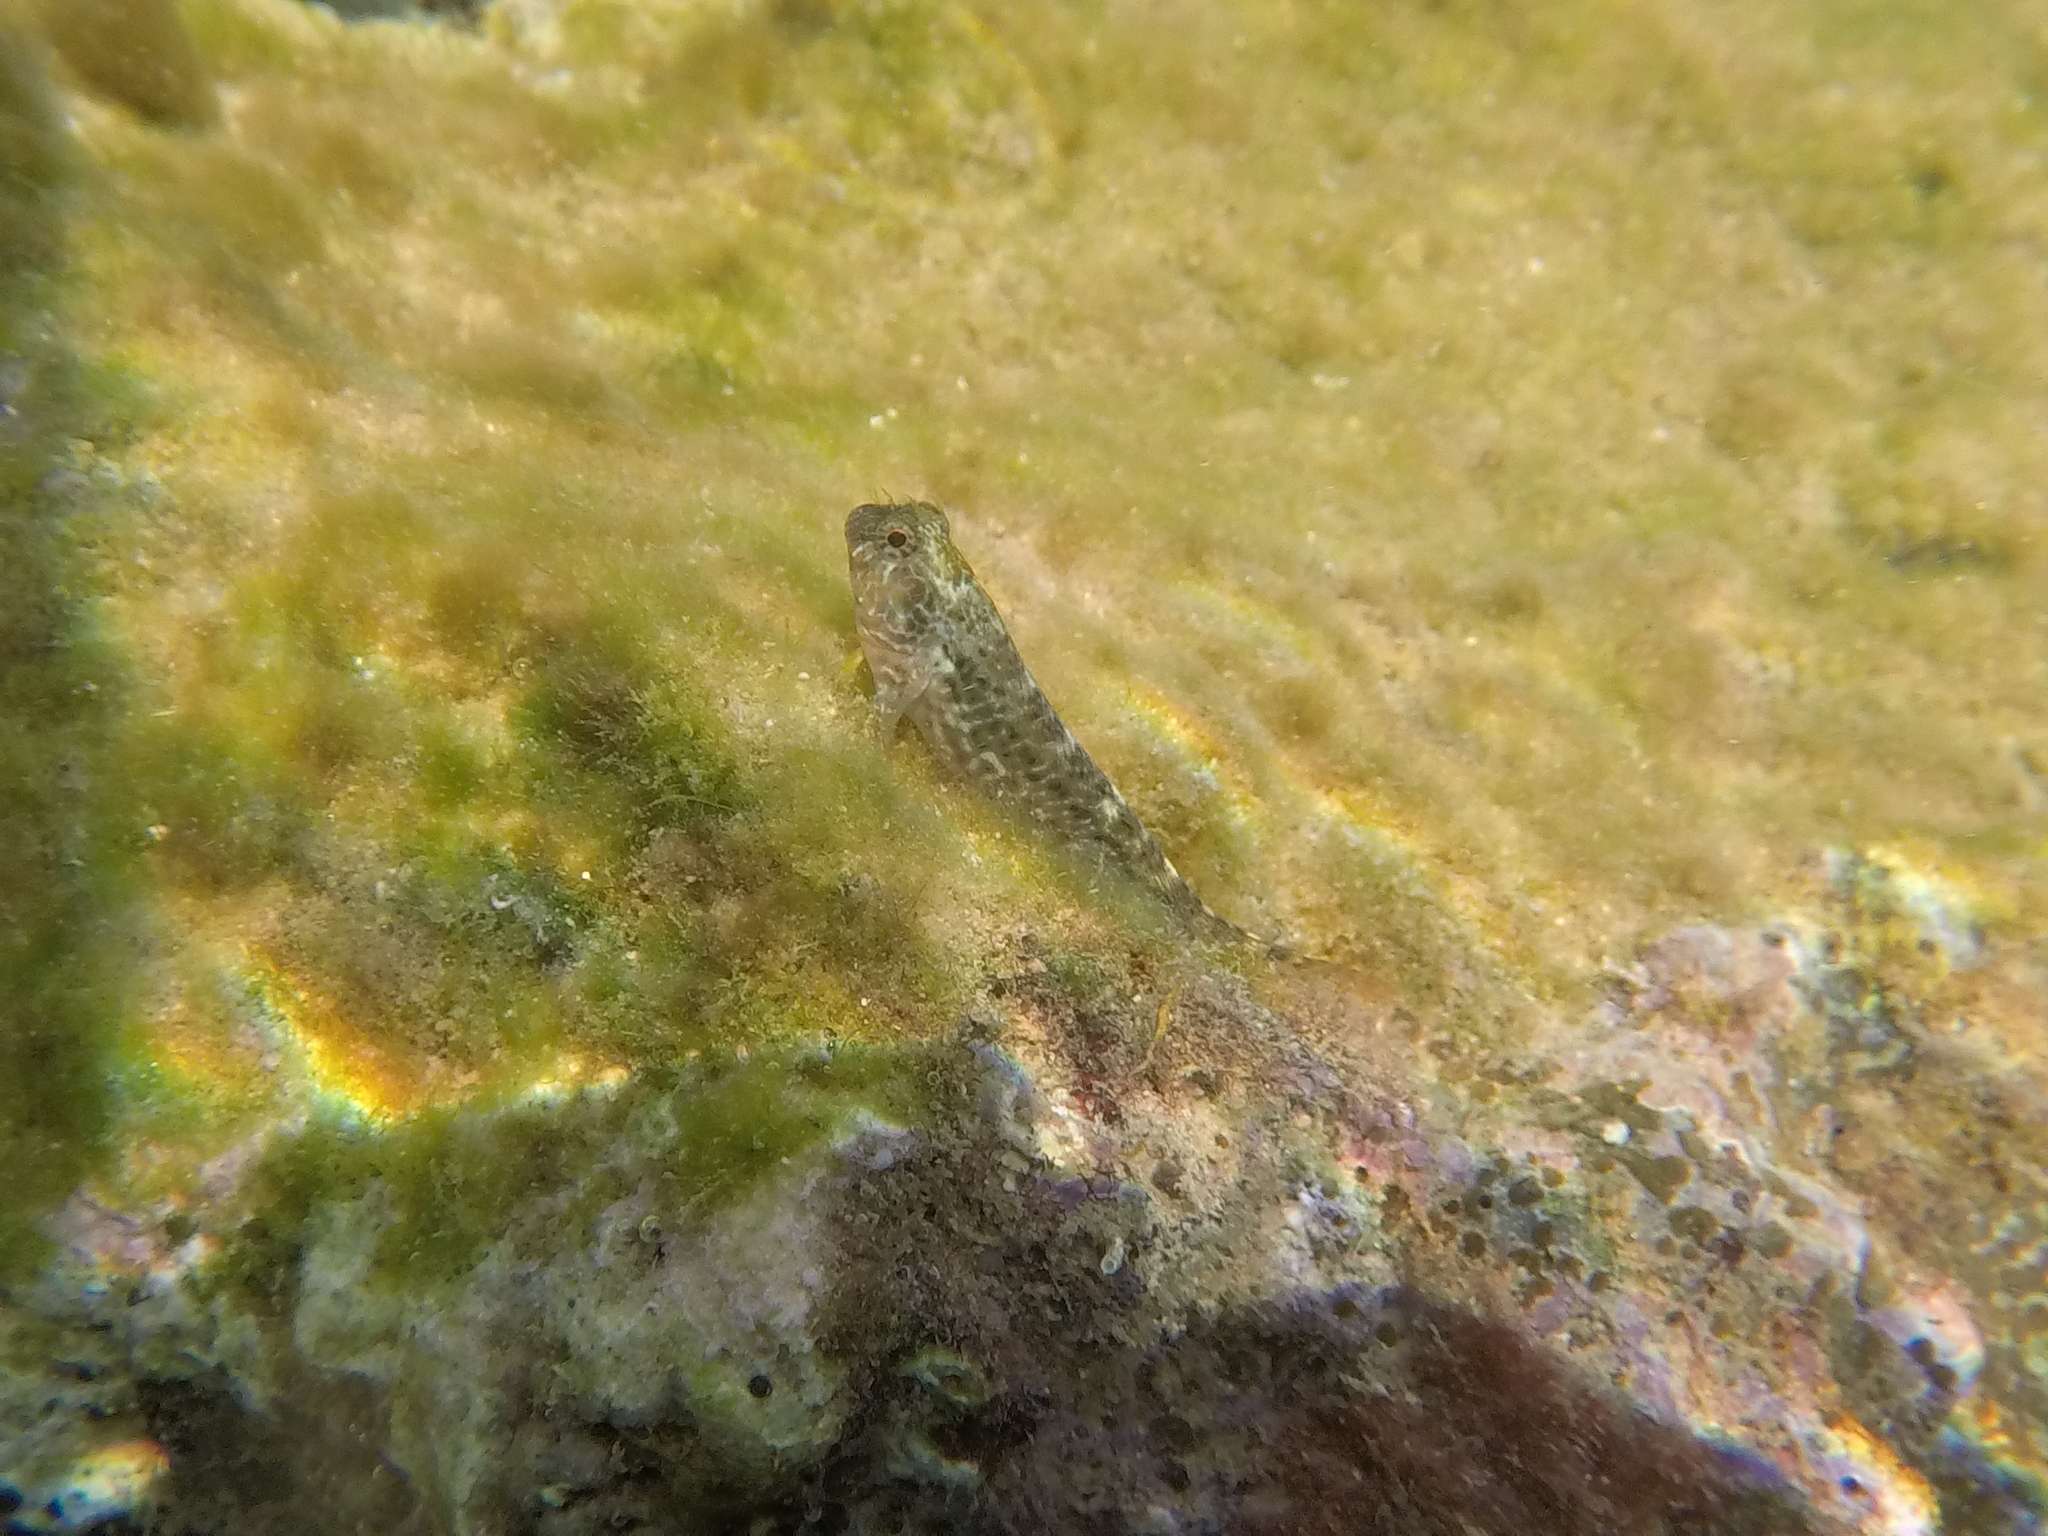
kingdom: Animalia
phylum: Chordata
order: Perciformes
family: Blenniidae
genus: Parablennius
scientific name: Parablennius zvonimiri
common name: Red blenny
